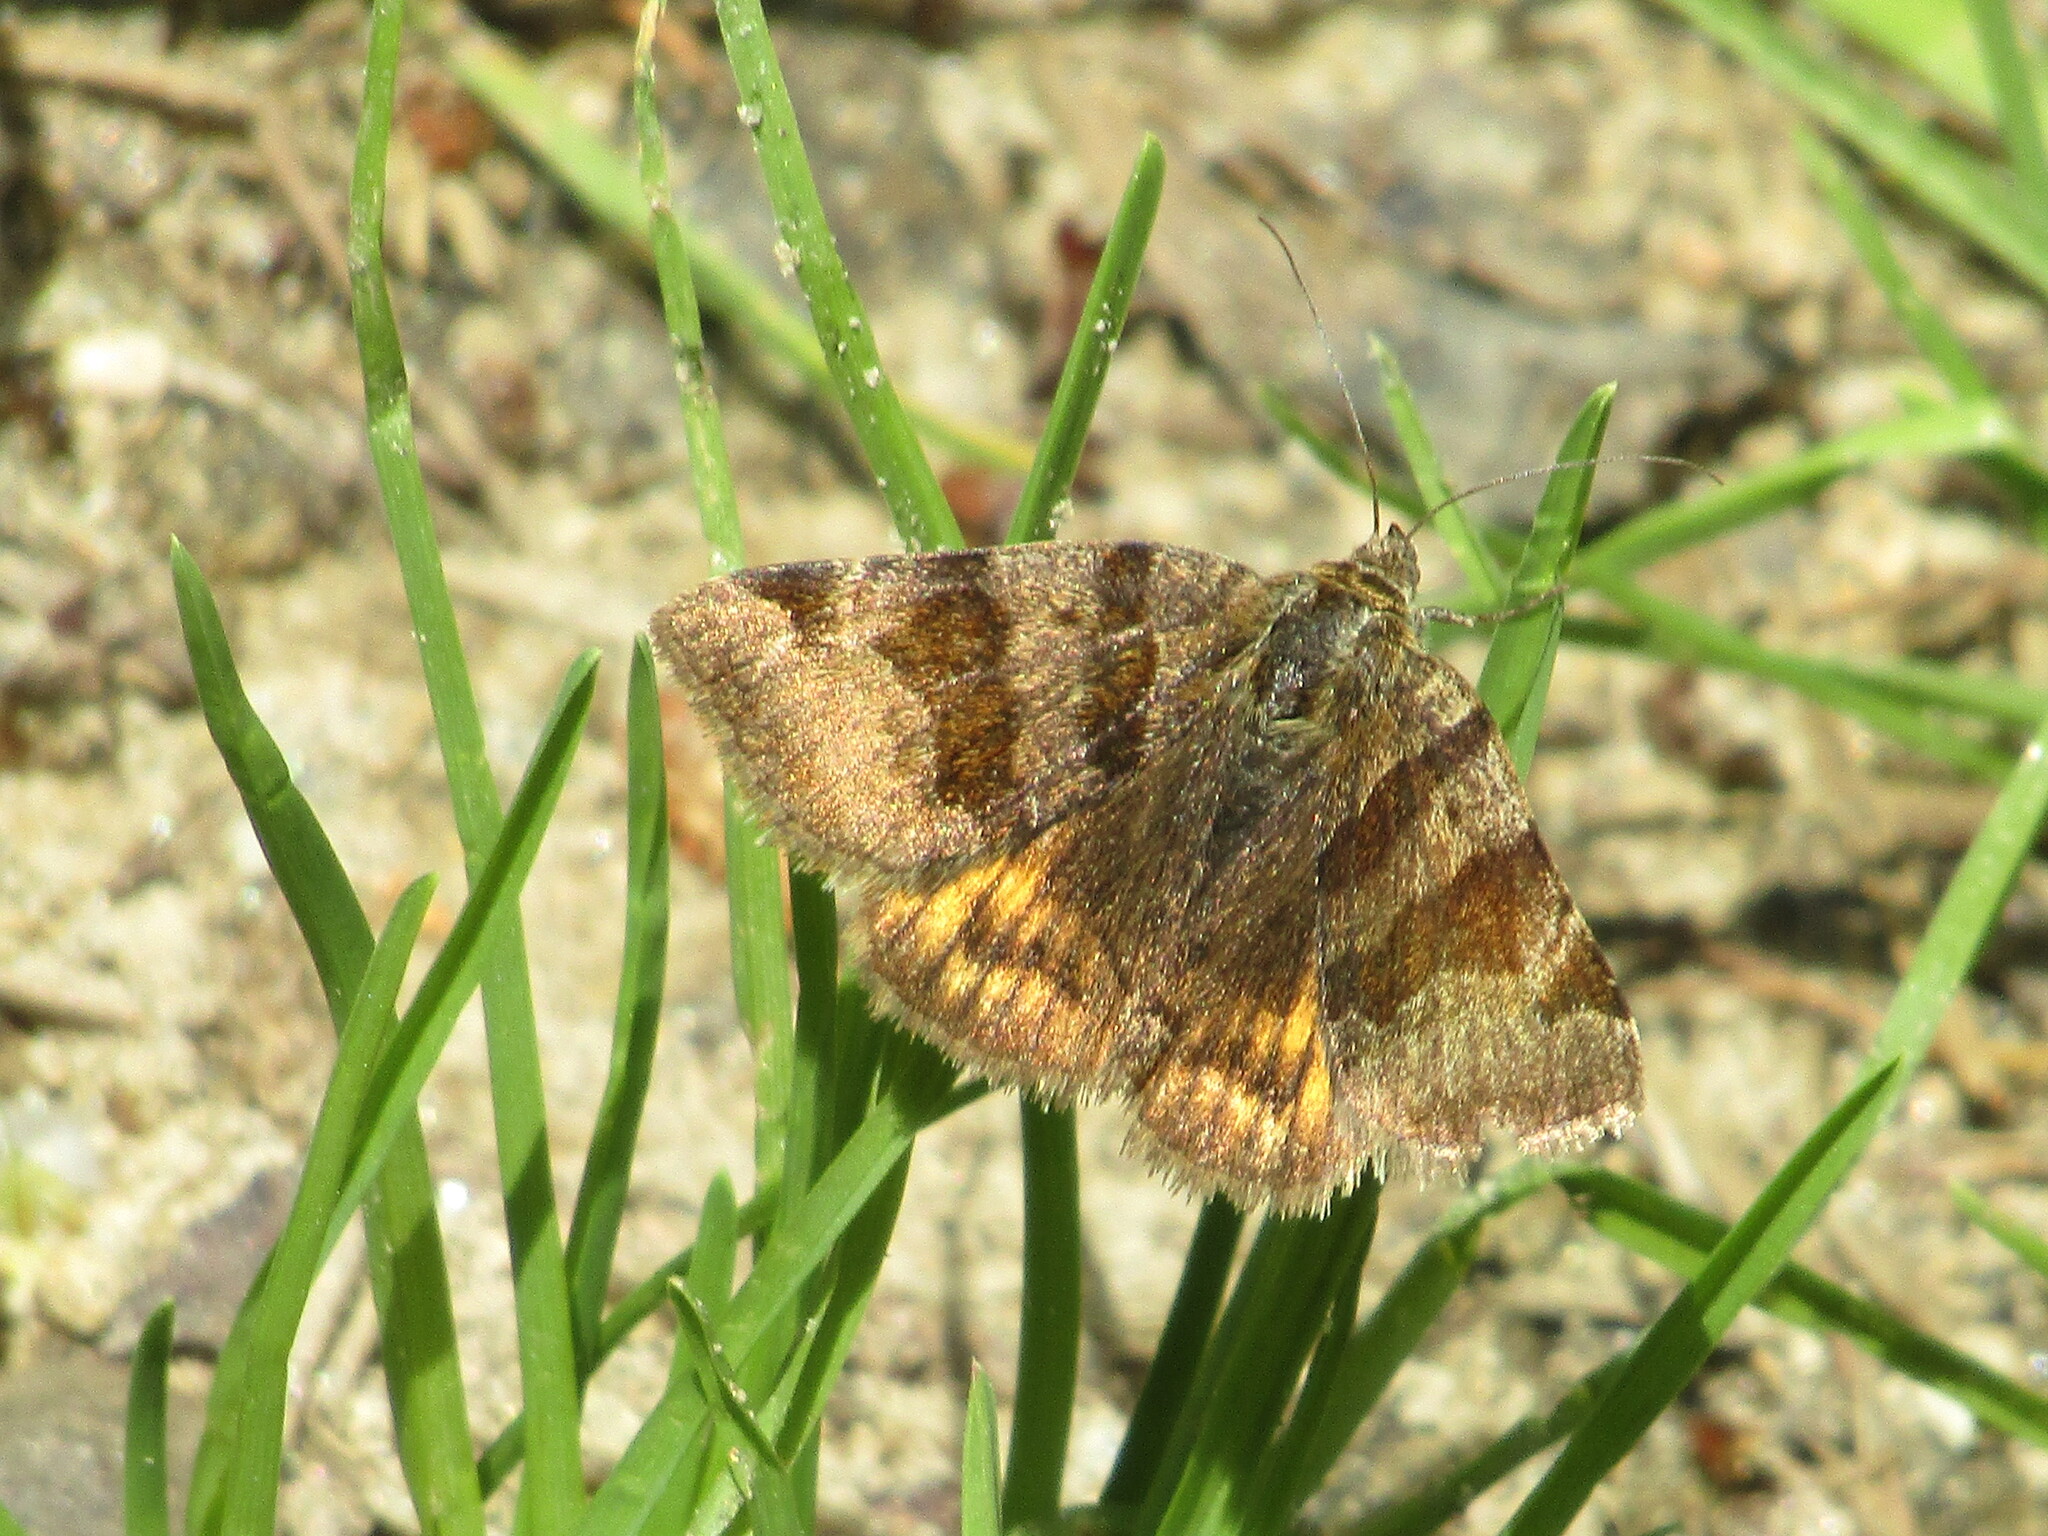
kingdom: Animalia
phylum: Arthropoda
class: Insecta
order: Lepidoptera
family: Erebidae
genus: Euclidia
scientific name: Euclidia glyphica
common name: Burnet companion
